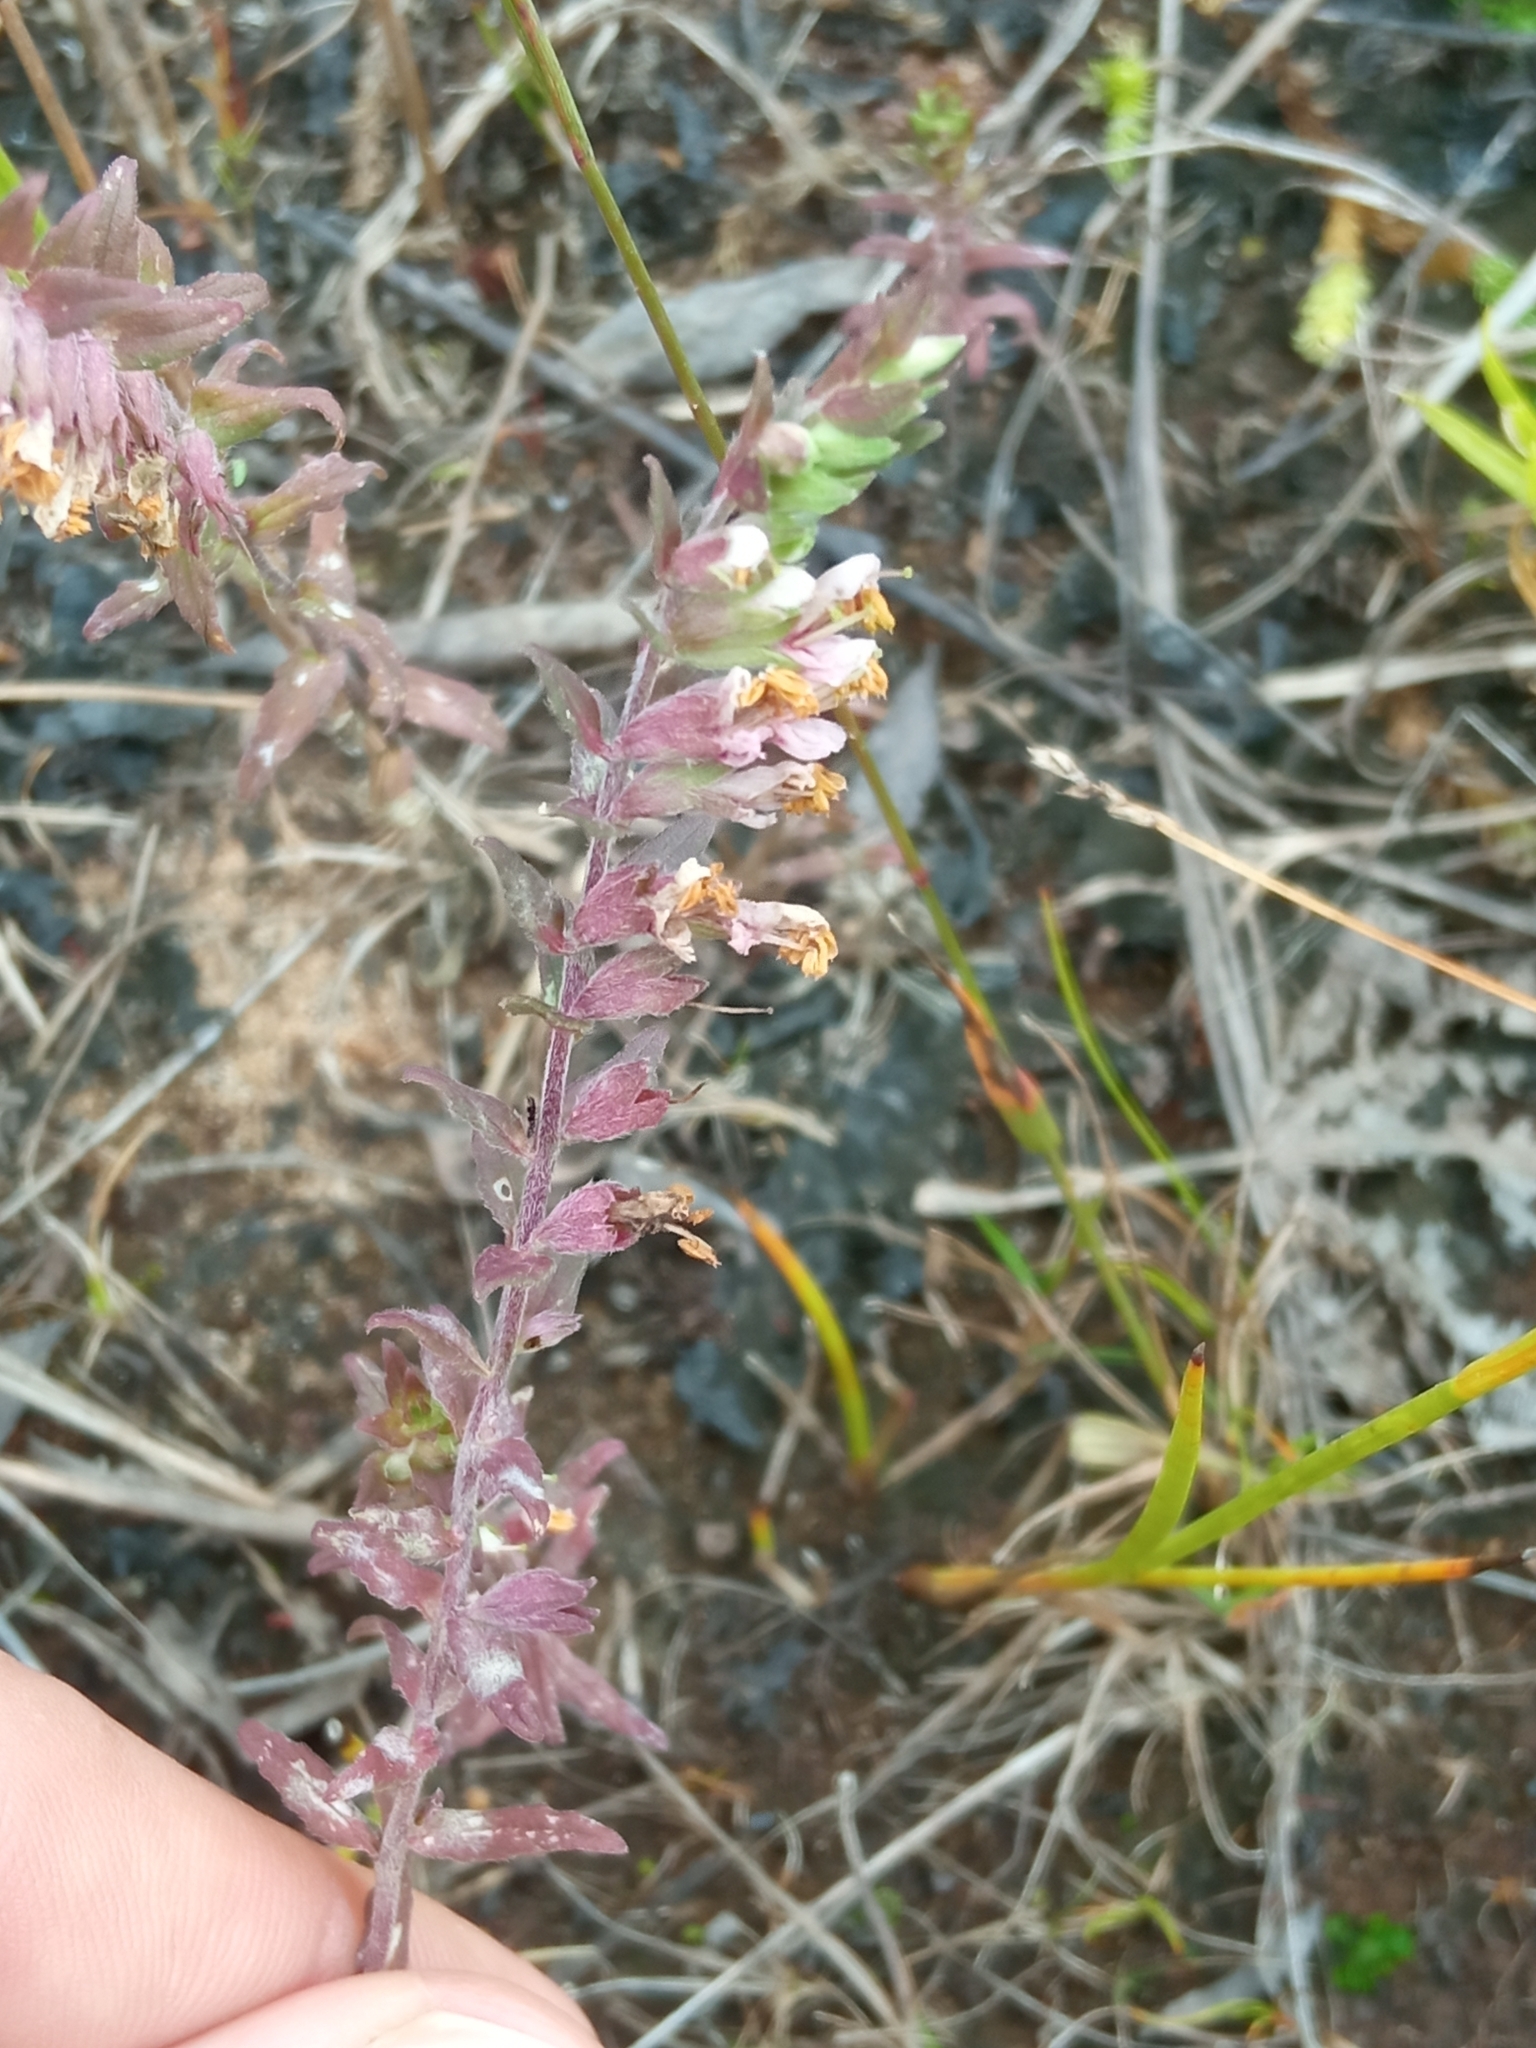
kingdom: Plantae
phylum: Tracheophyta
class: Magnoliopsida
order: Lamiales
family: Orobanchaceae
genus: Odontites
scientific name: Odontites vulgaris
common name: Broomrape
